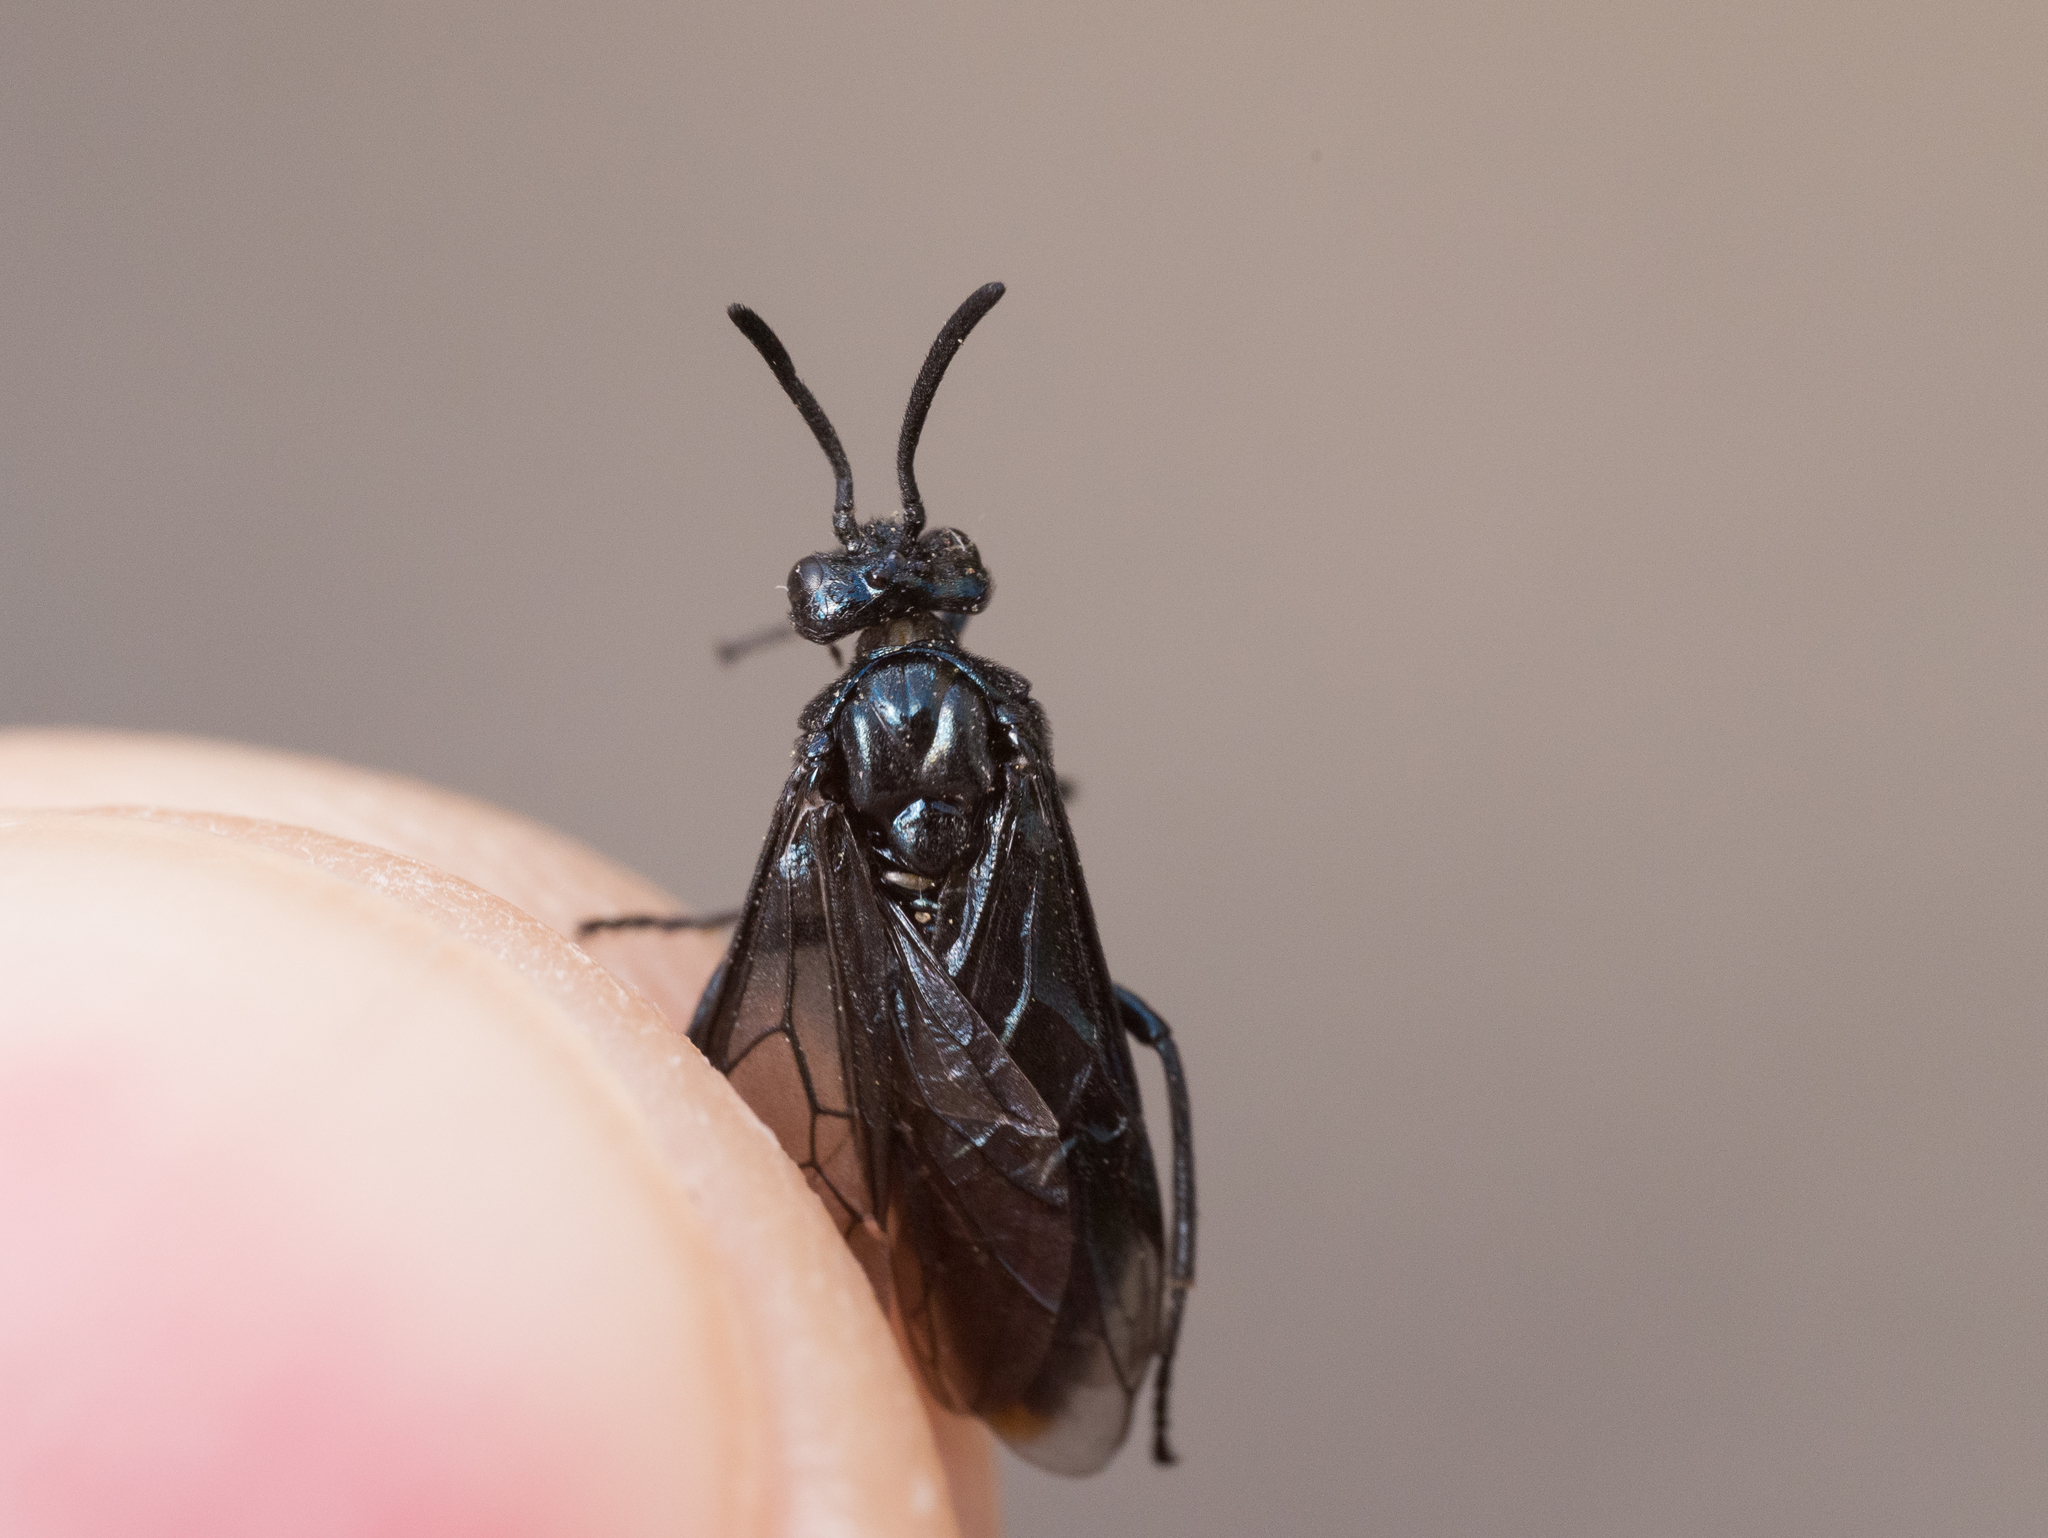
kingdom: Animalia
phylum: Arthropoda
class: Insecta
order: Hymenoptera
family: Argidae
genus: Arge
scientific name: Arge berberidis
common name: Berberis sawfly
